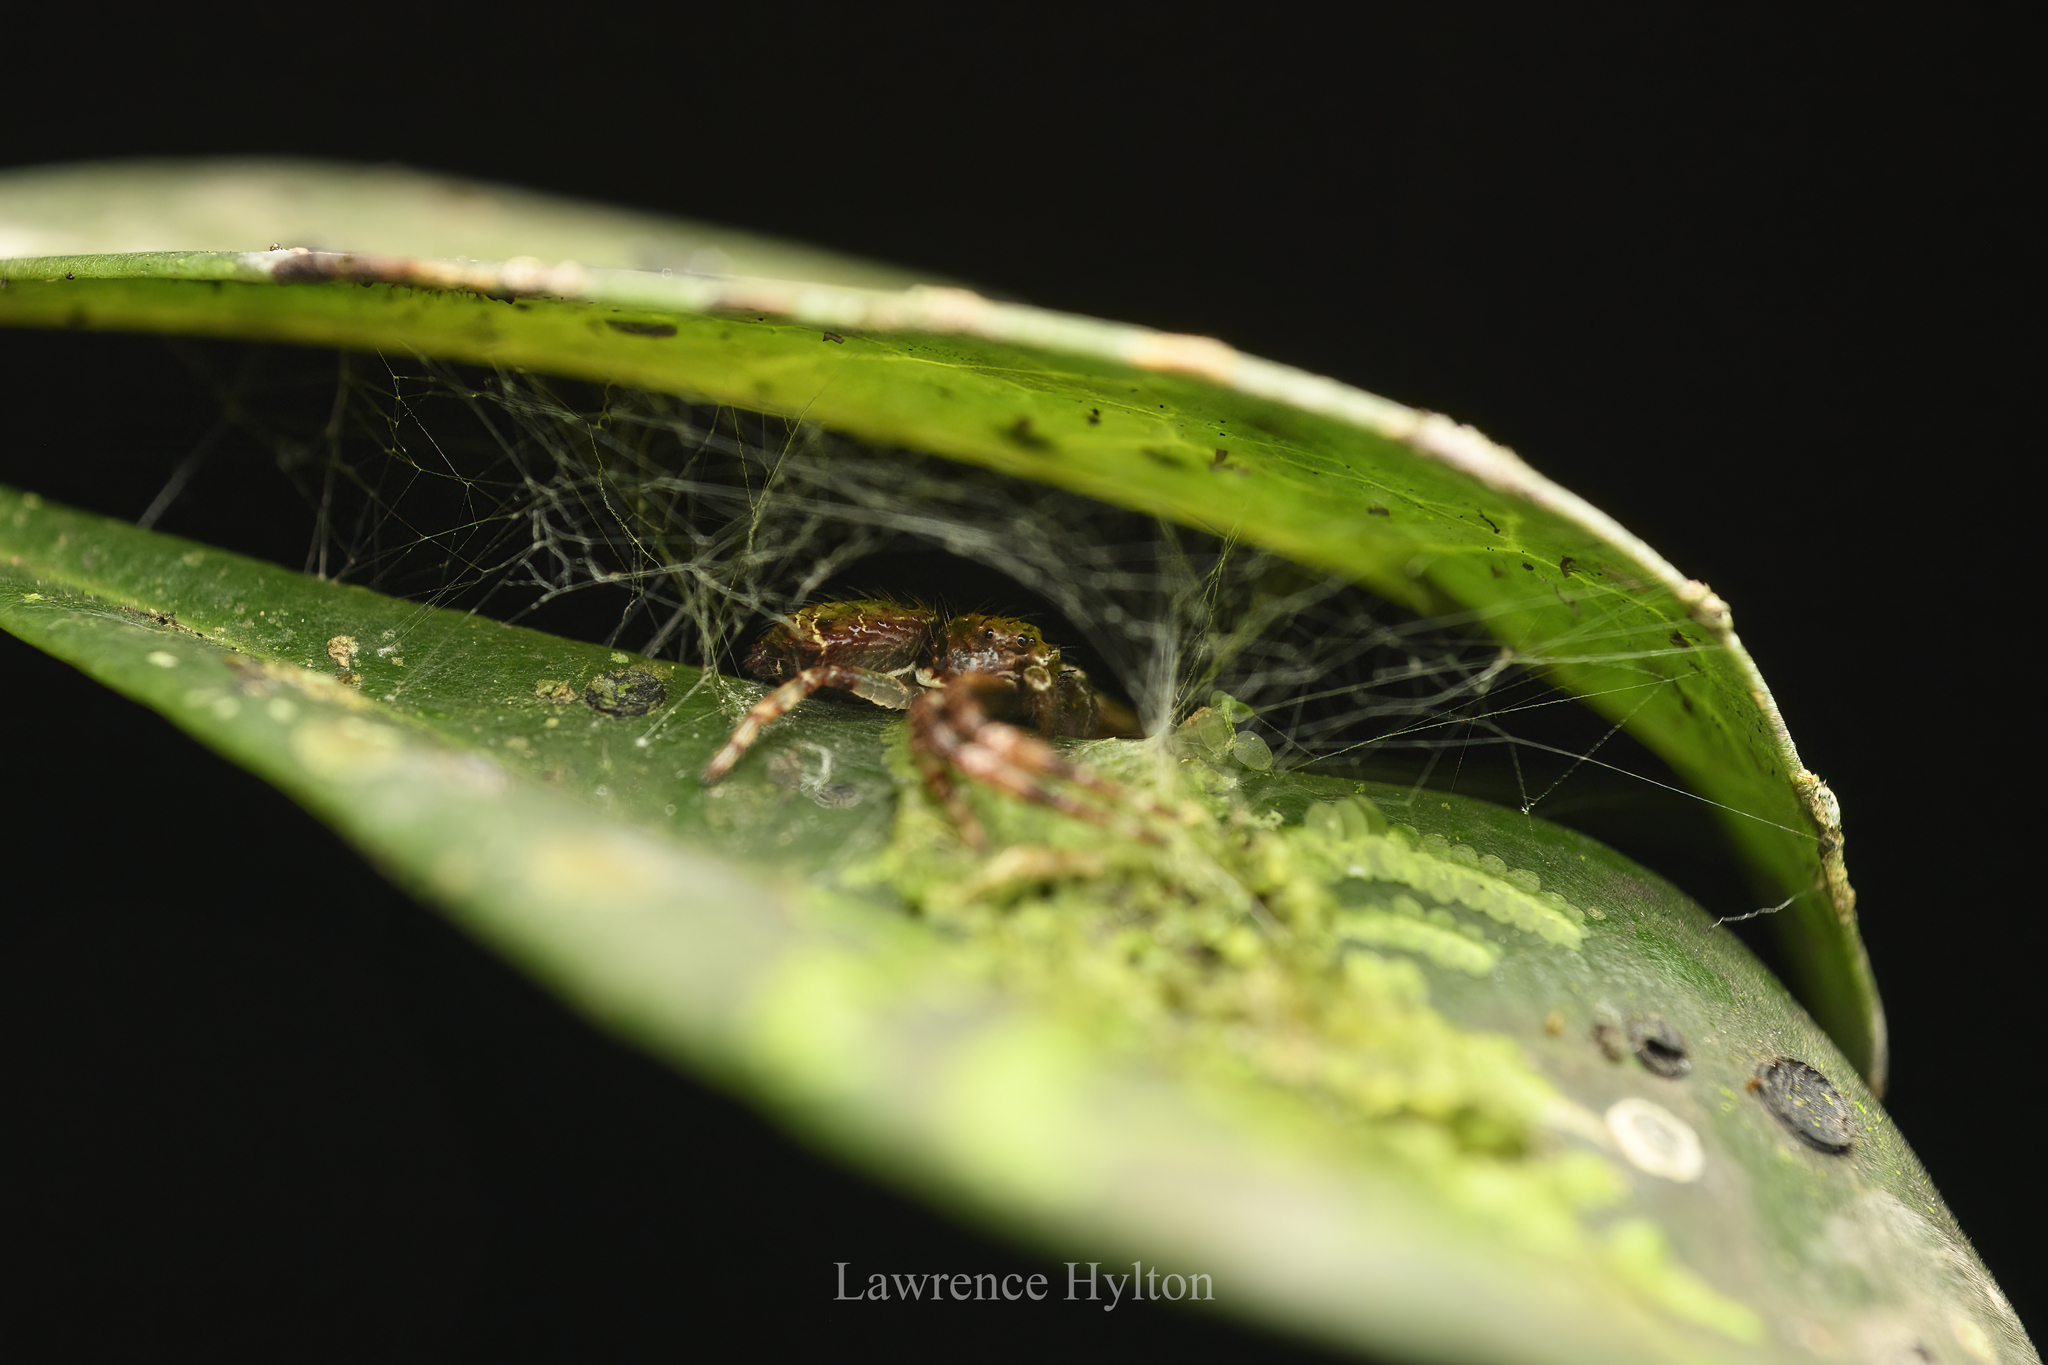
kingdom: Animalia
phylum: Arthropoda
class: Arachnida
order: Araneae
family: Thomisidae
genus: Strigoplus
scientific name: Strigoplus guizhouensis
